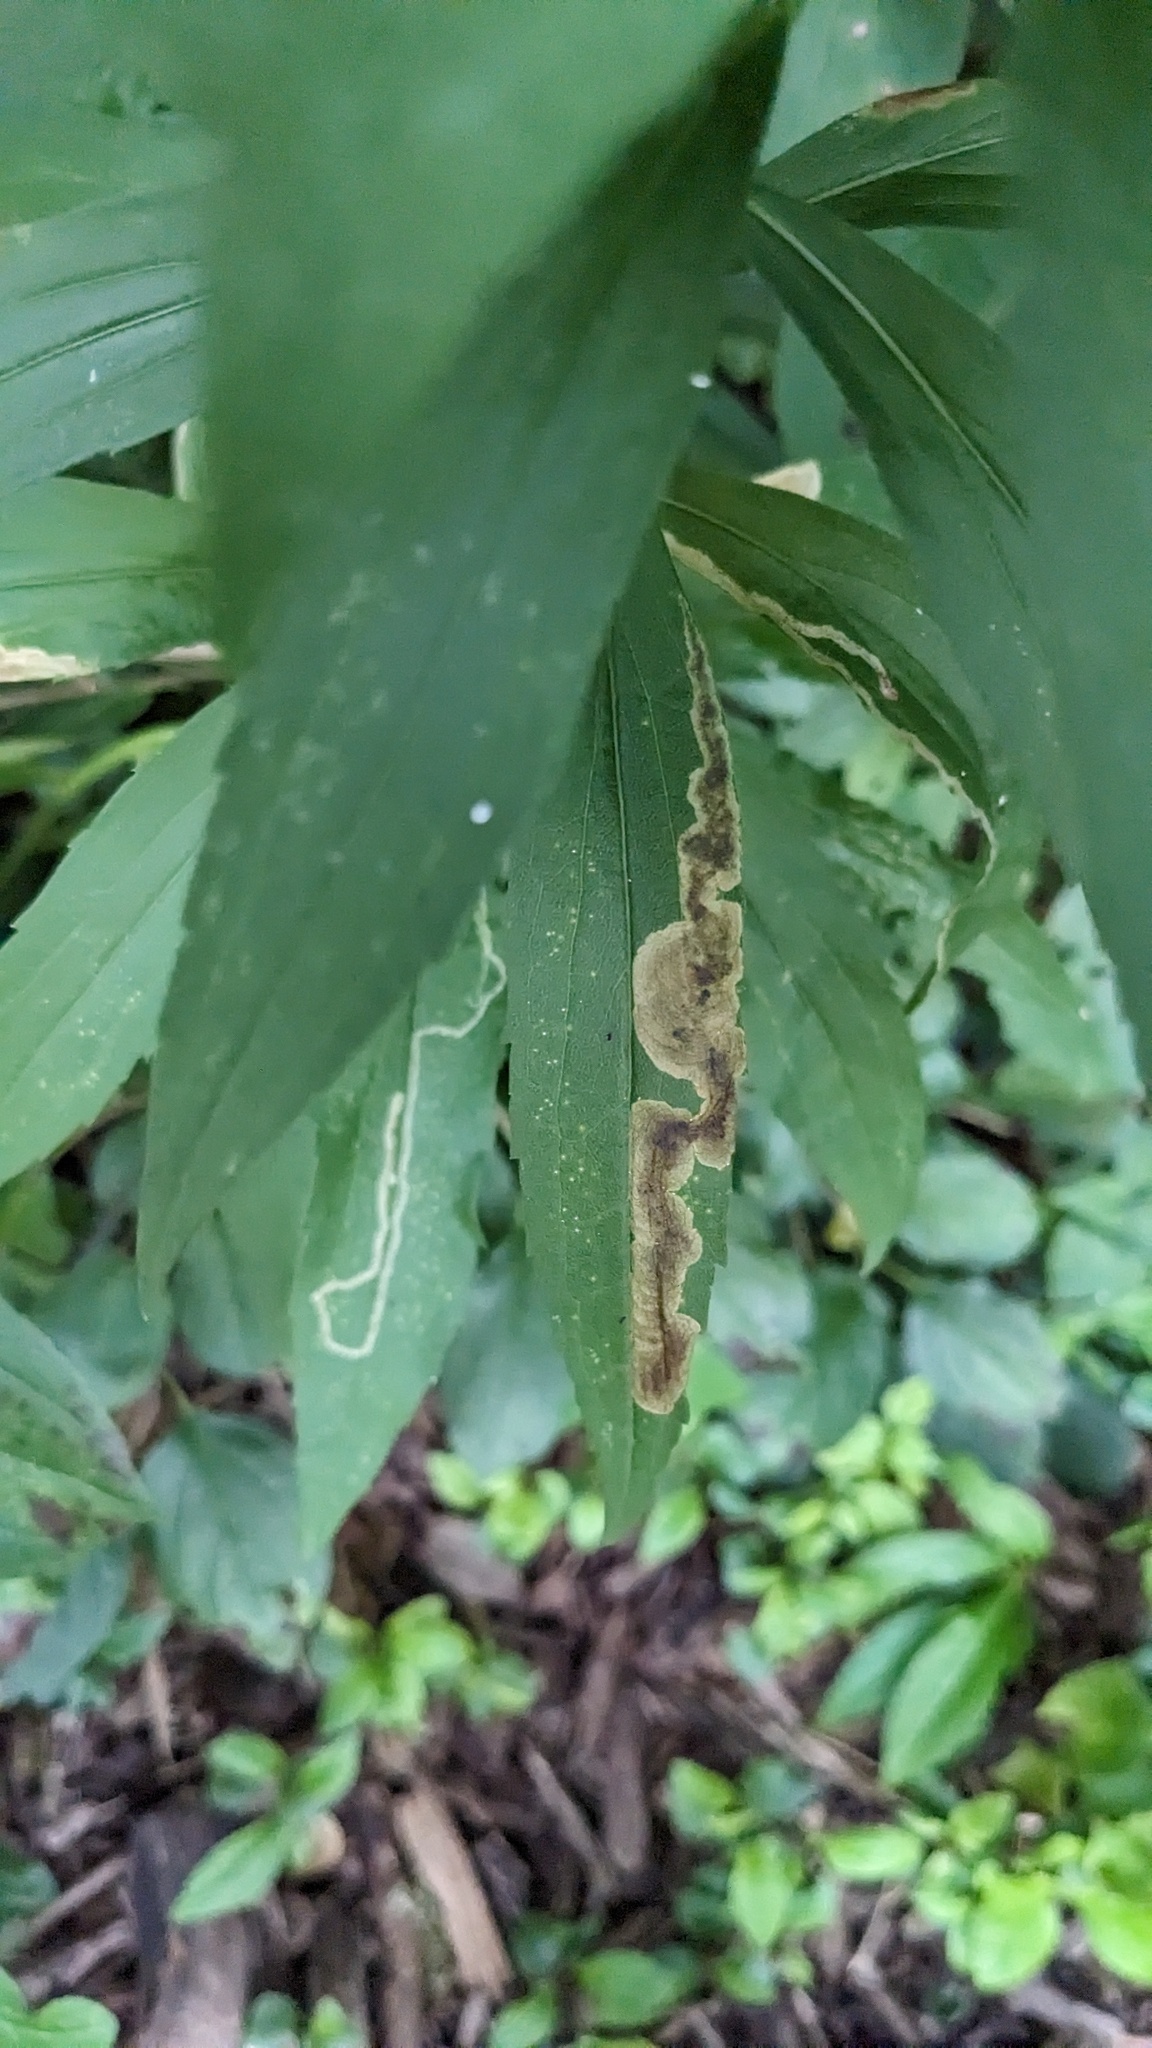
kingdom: Animalia
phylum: Arthropoda
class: Insecta
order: Diptera
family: Agromyzidae
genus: Nemorimyza
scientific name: Nemorimyza posticata
